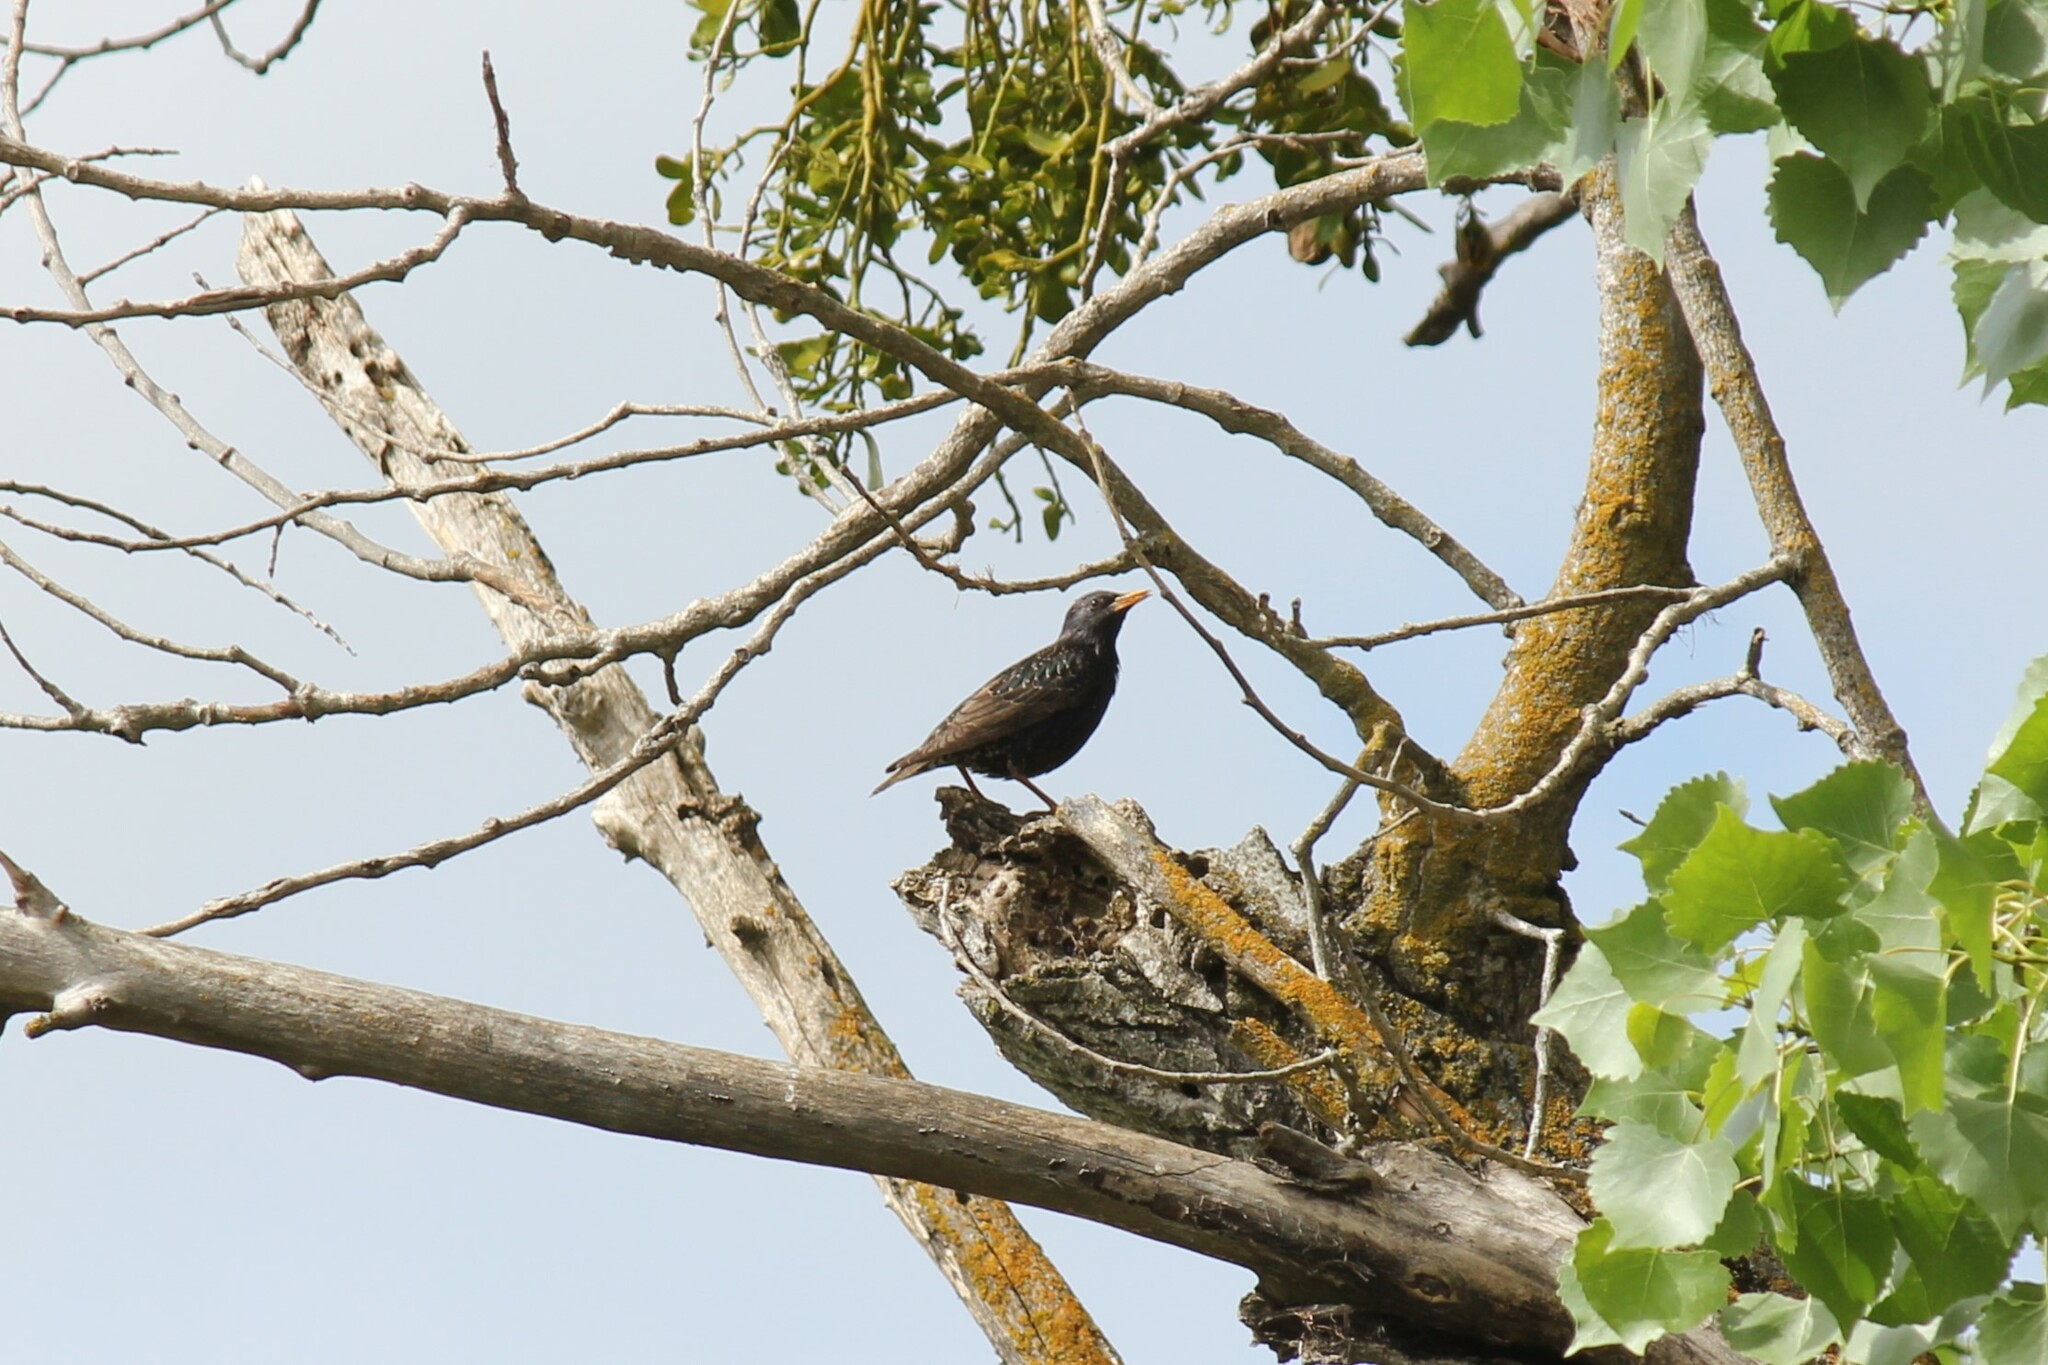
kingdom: Animalia
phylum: Chordata
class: Aves
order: Passeriformes
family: Sturnidae
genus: Sturnus
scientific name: Sturnus vulgaris
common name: Common starling
